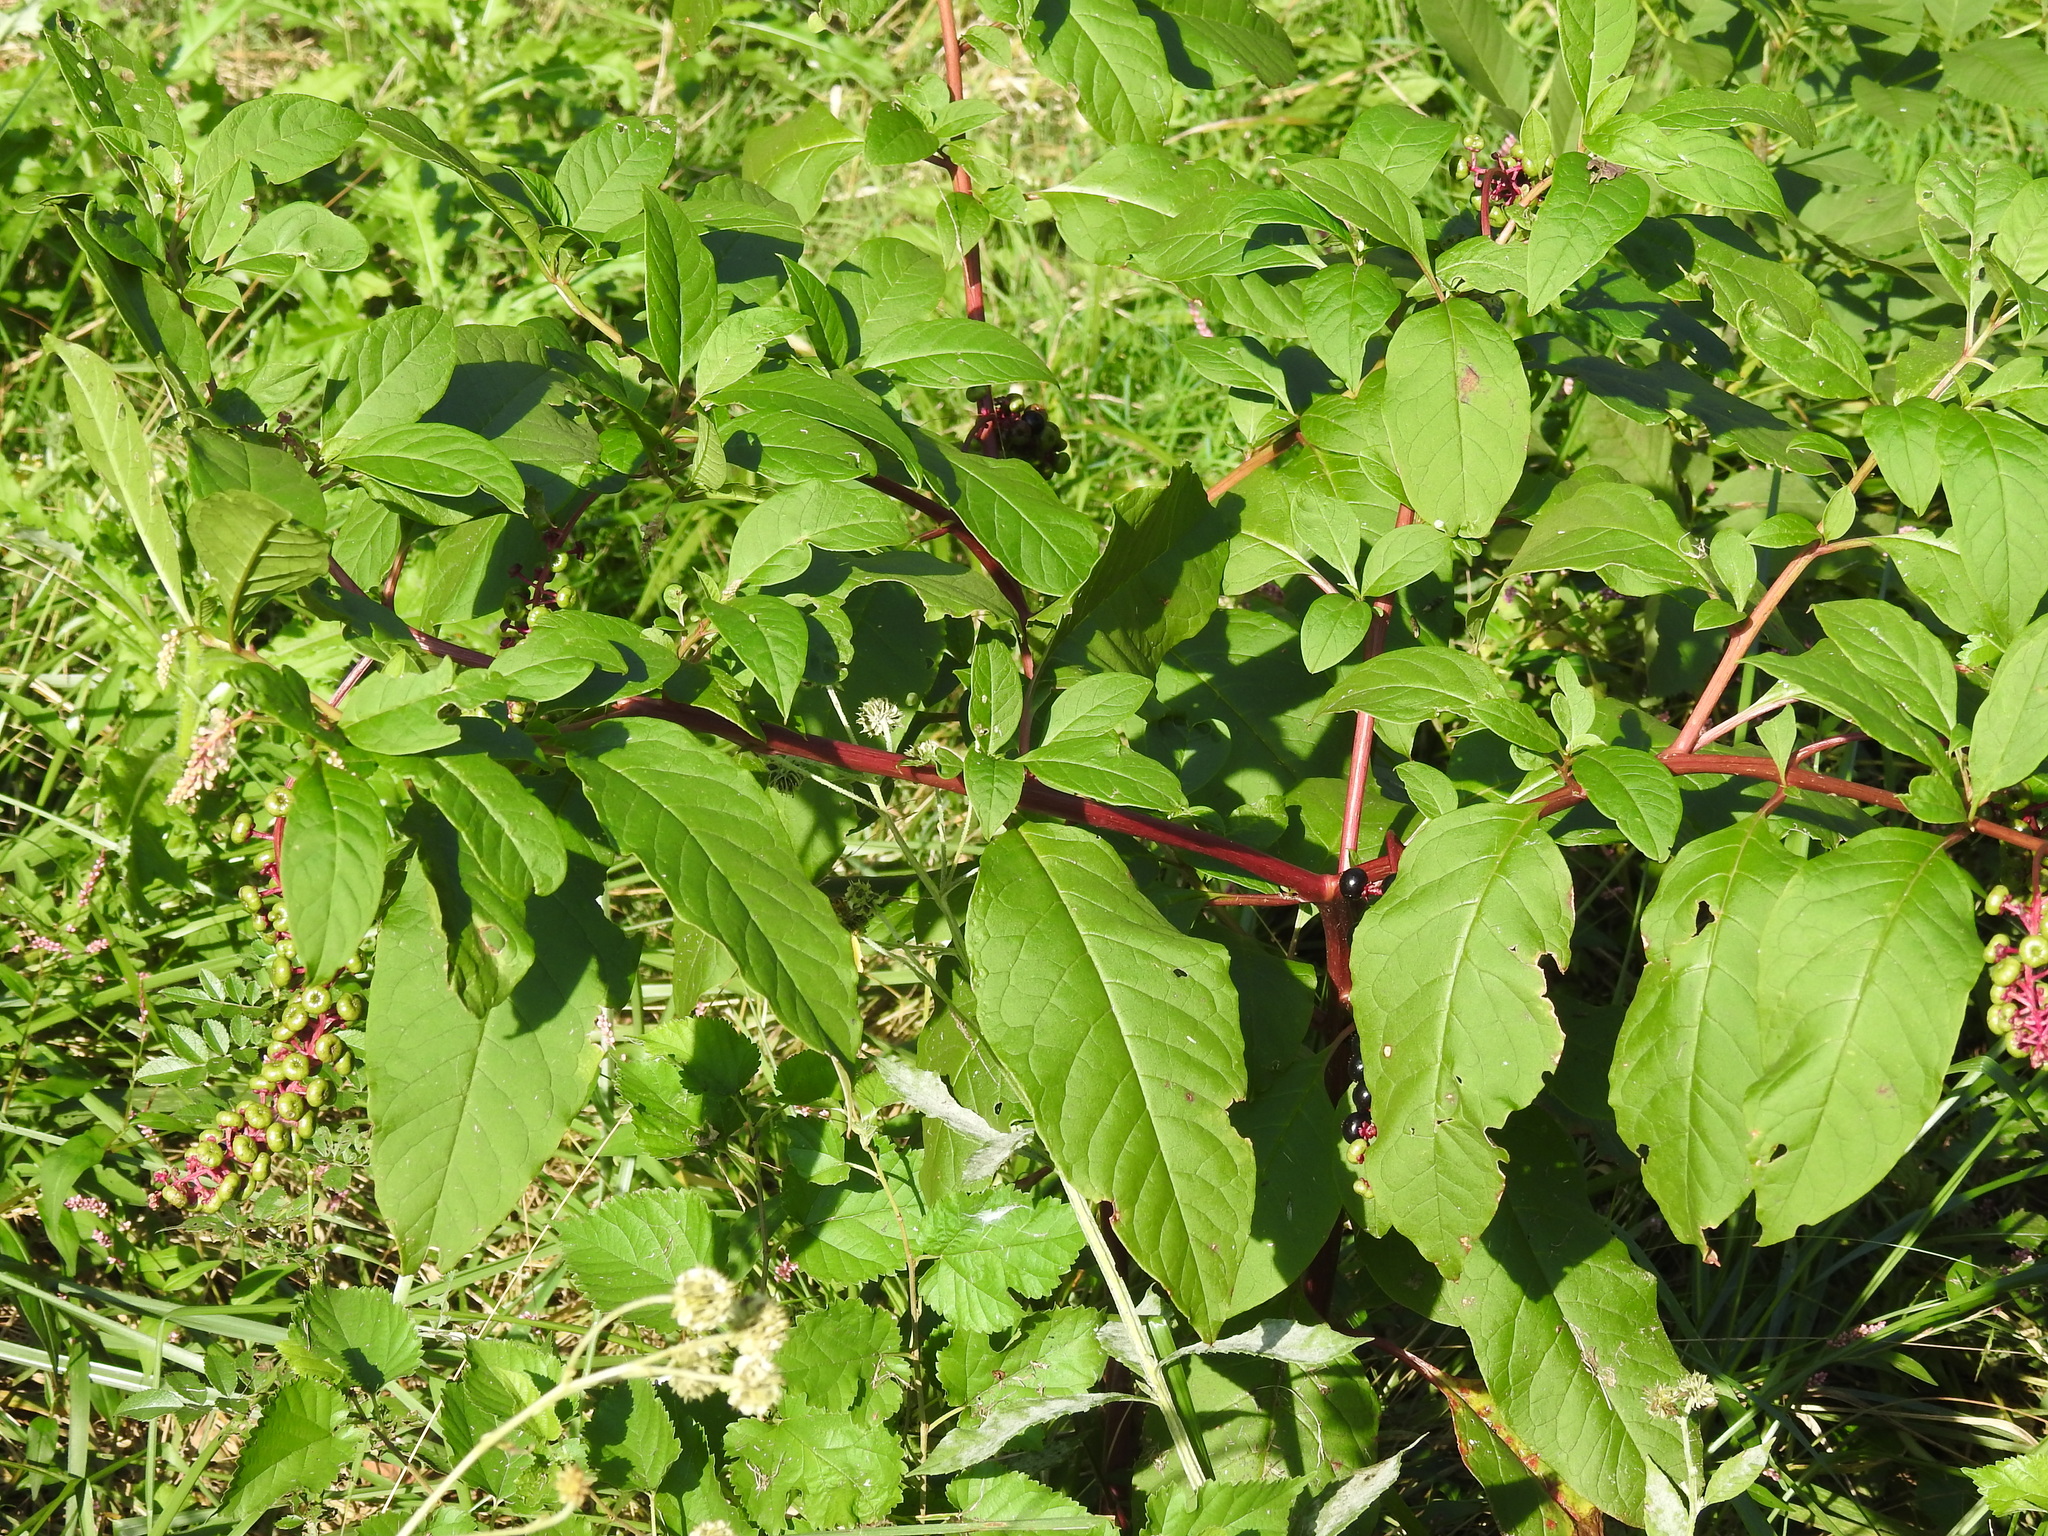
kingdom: Plantae
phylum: Tracheophyta
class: Magnoliopsida
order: Caryophyllales
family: Phytolaccaceae
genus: Phytolacca
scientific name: Phytolacca americana
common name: American pokeweed
